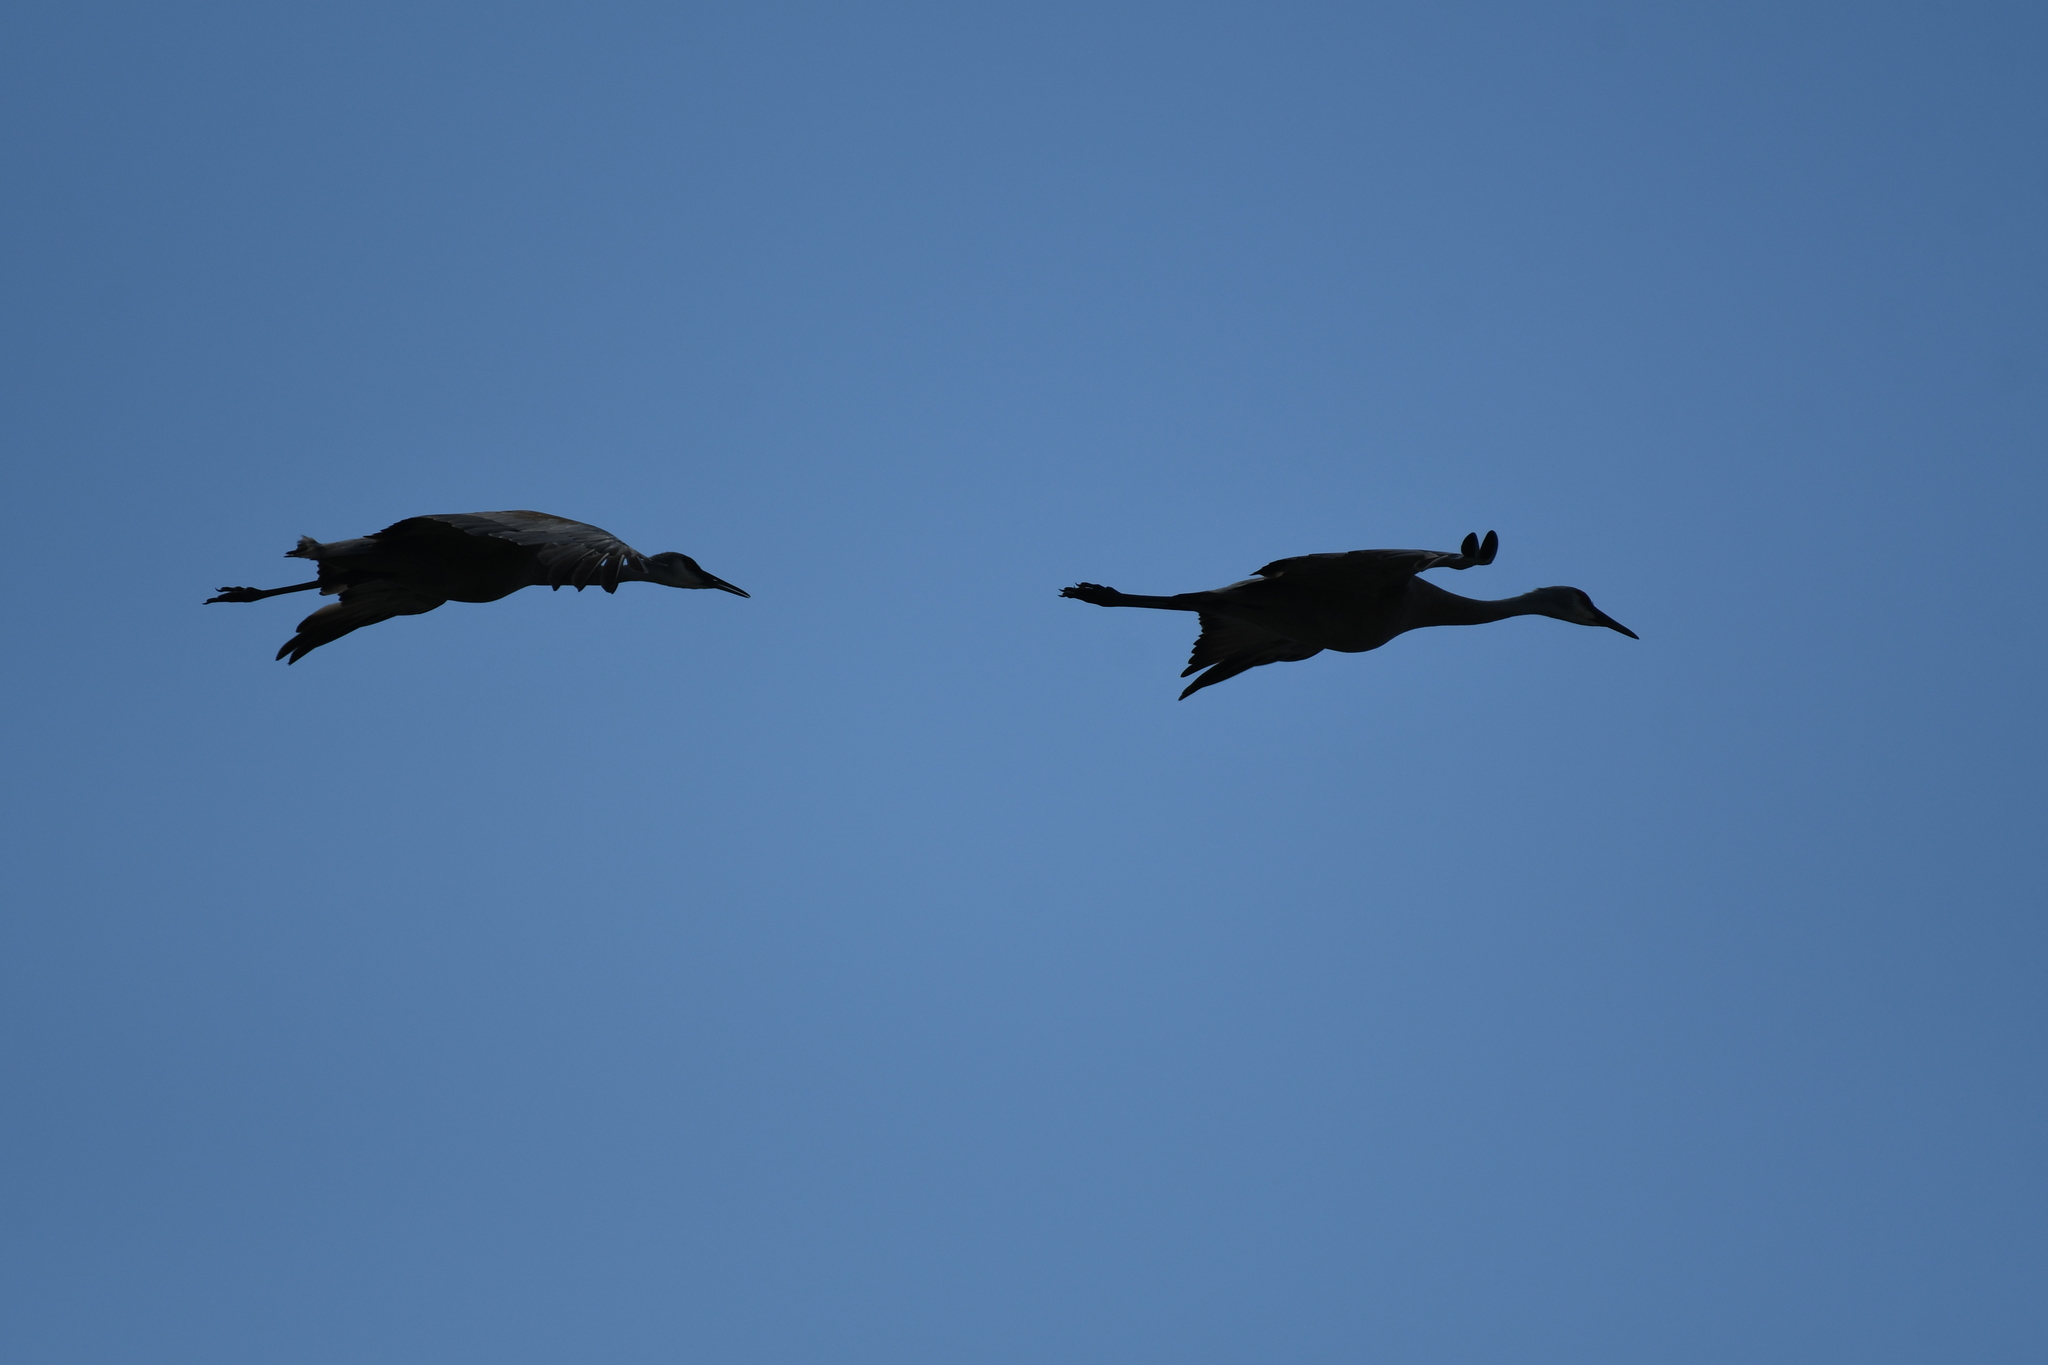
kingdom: Animalia
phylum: Chordata
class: Aves
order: Gruiformes
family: Gruidae
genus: Grus
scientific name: Grus canadensis
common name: Sandhill crane
